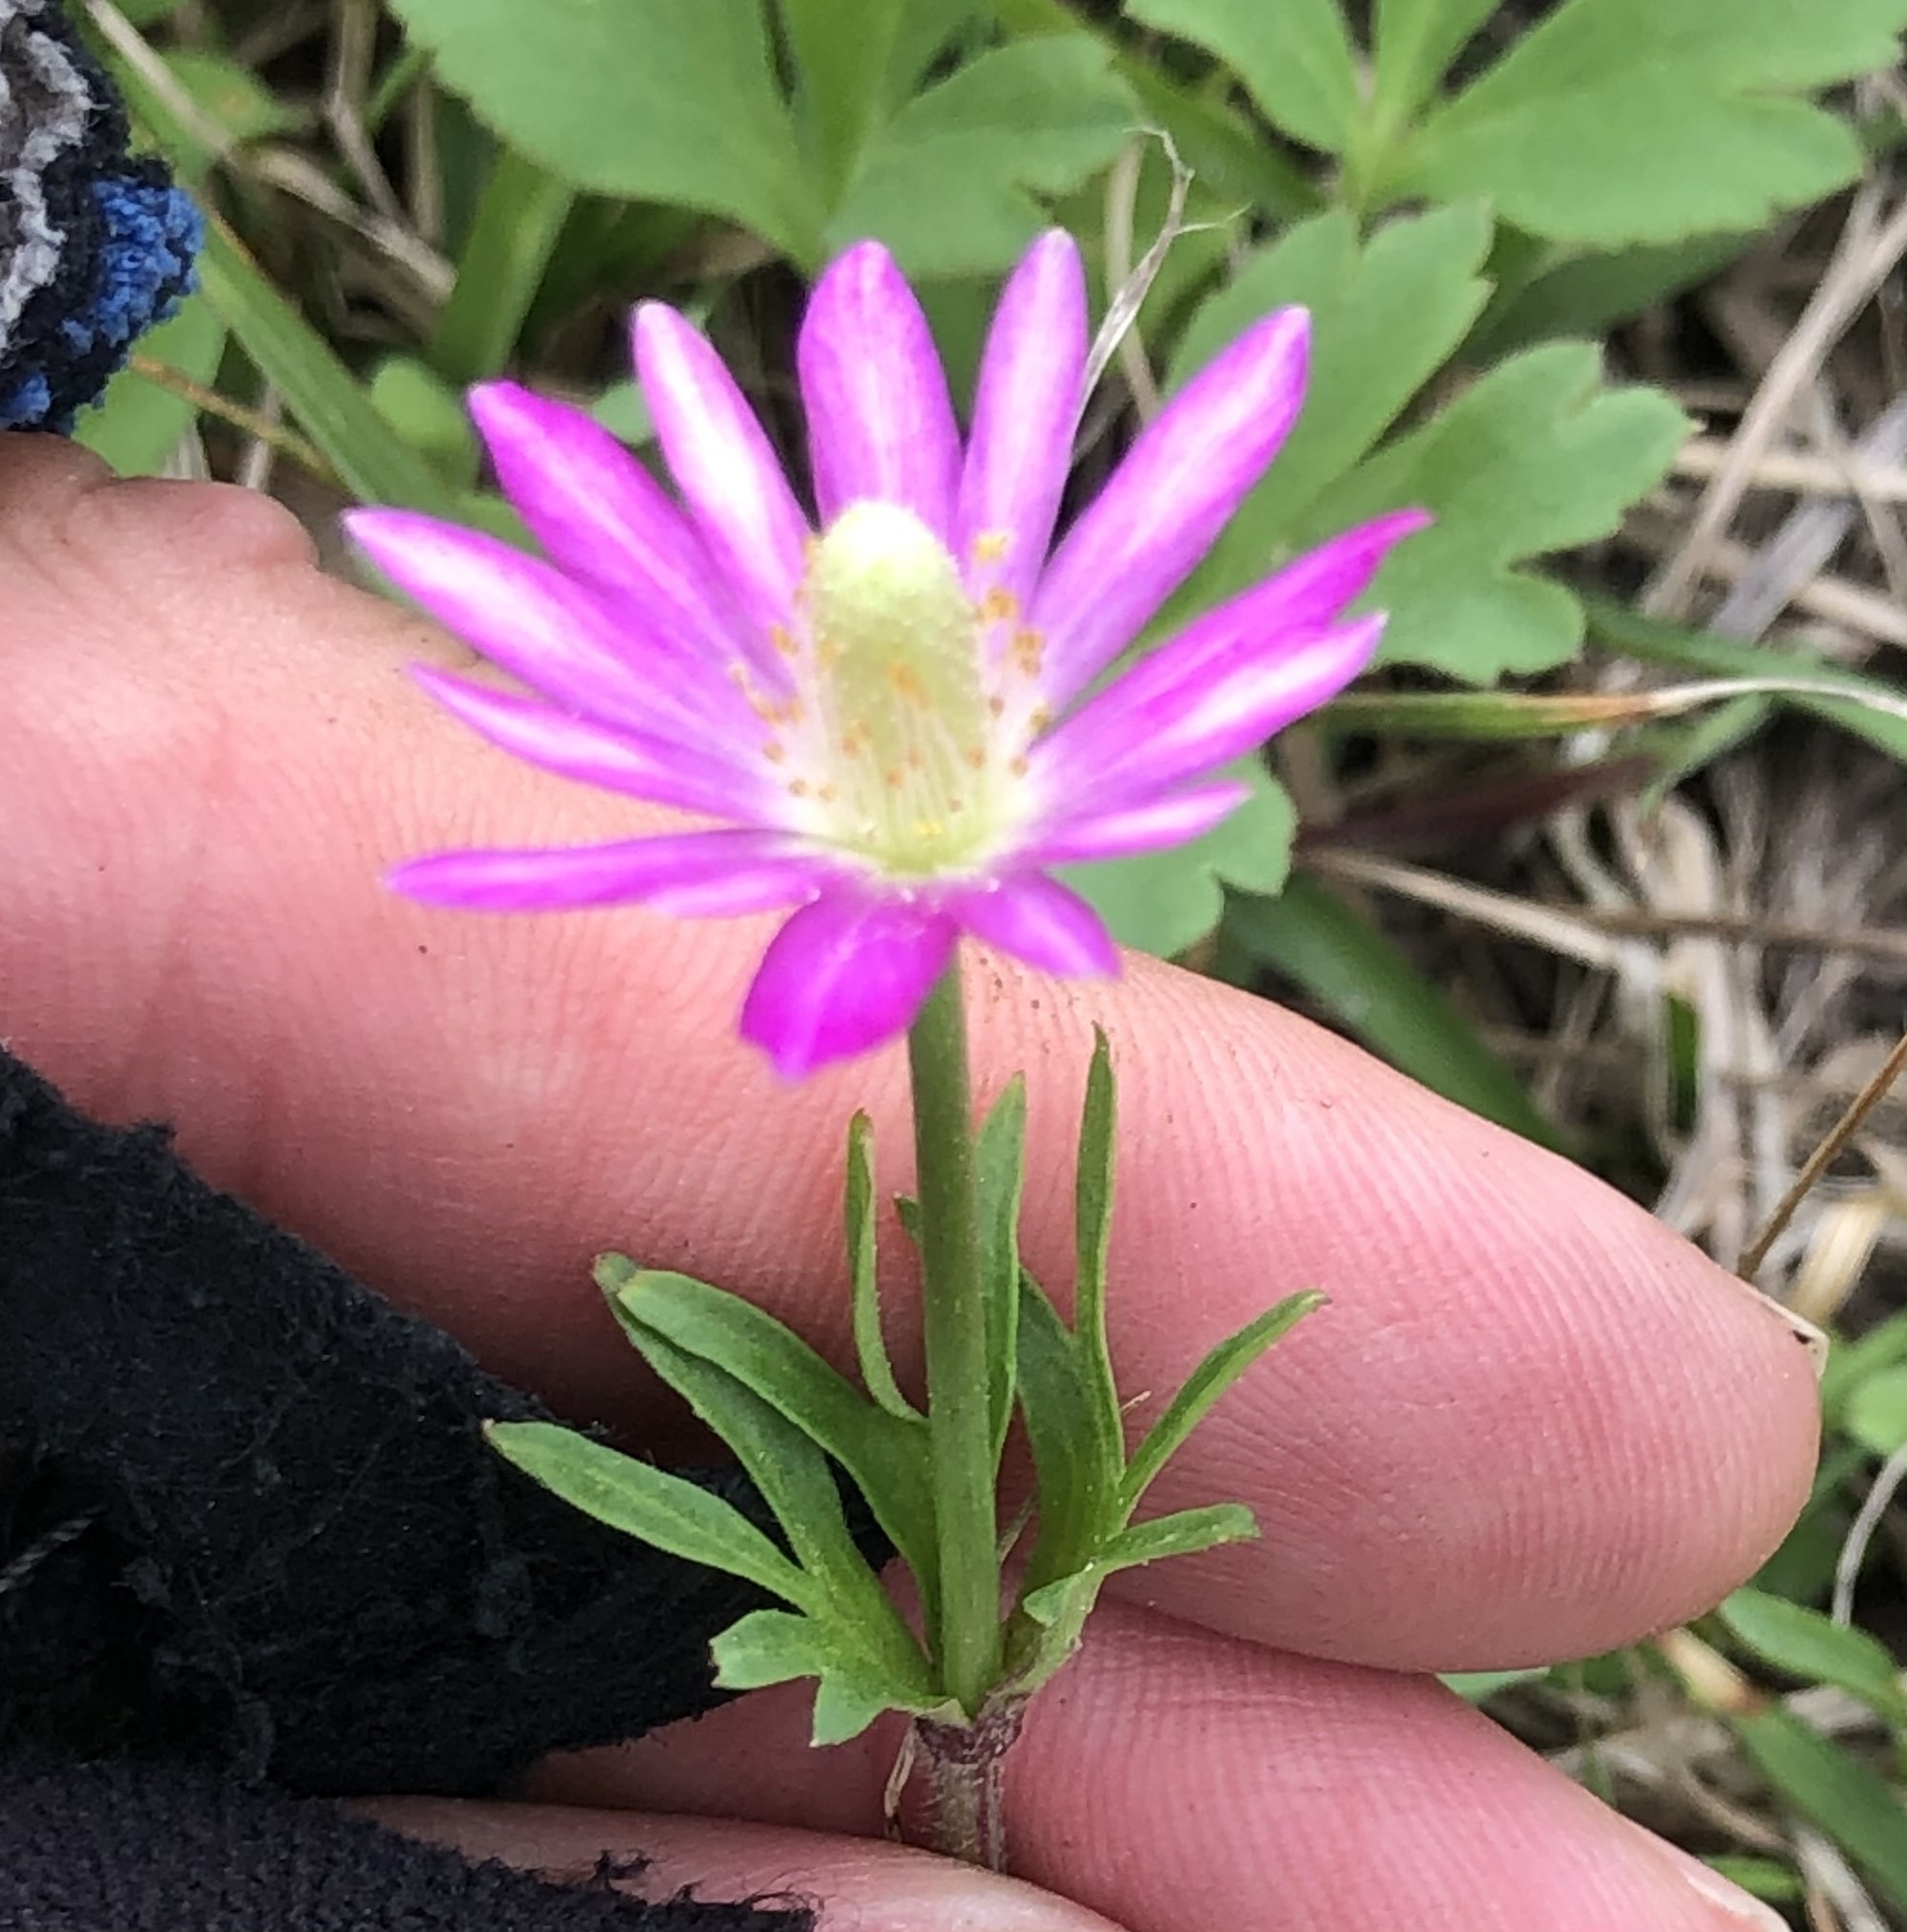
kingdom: Plantae
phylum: Tracheophyta
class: Magnoliopsida
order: Ranunculales
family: Ranunculaceae
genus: Anemone
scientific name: Anemone berlandieri
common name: Ten-petal anemone
